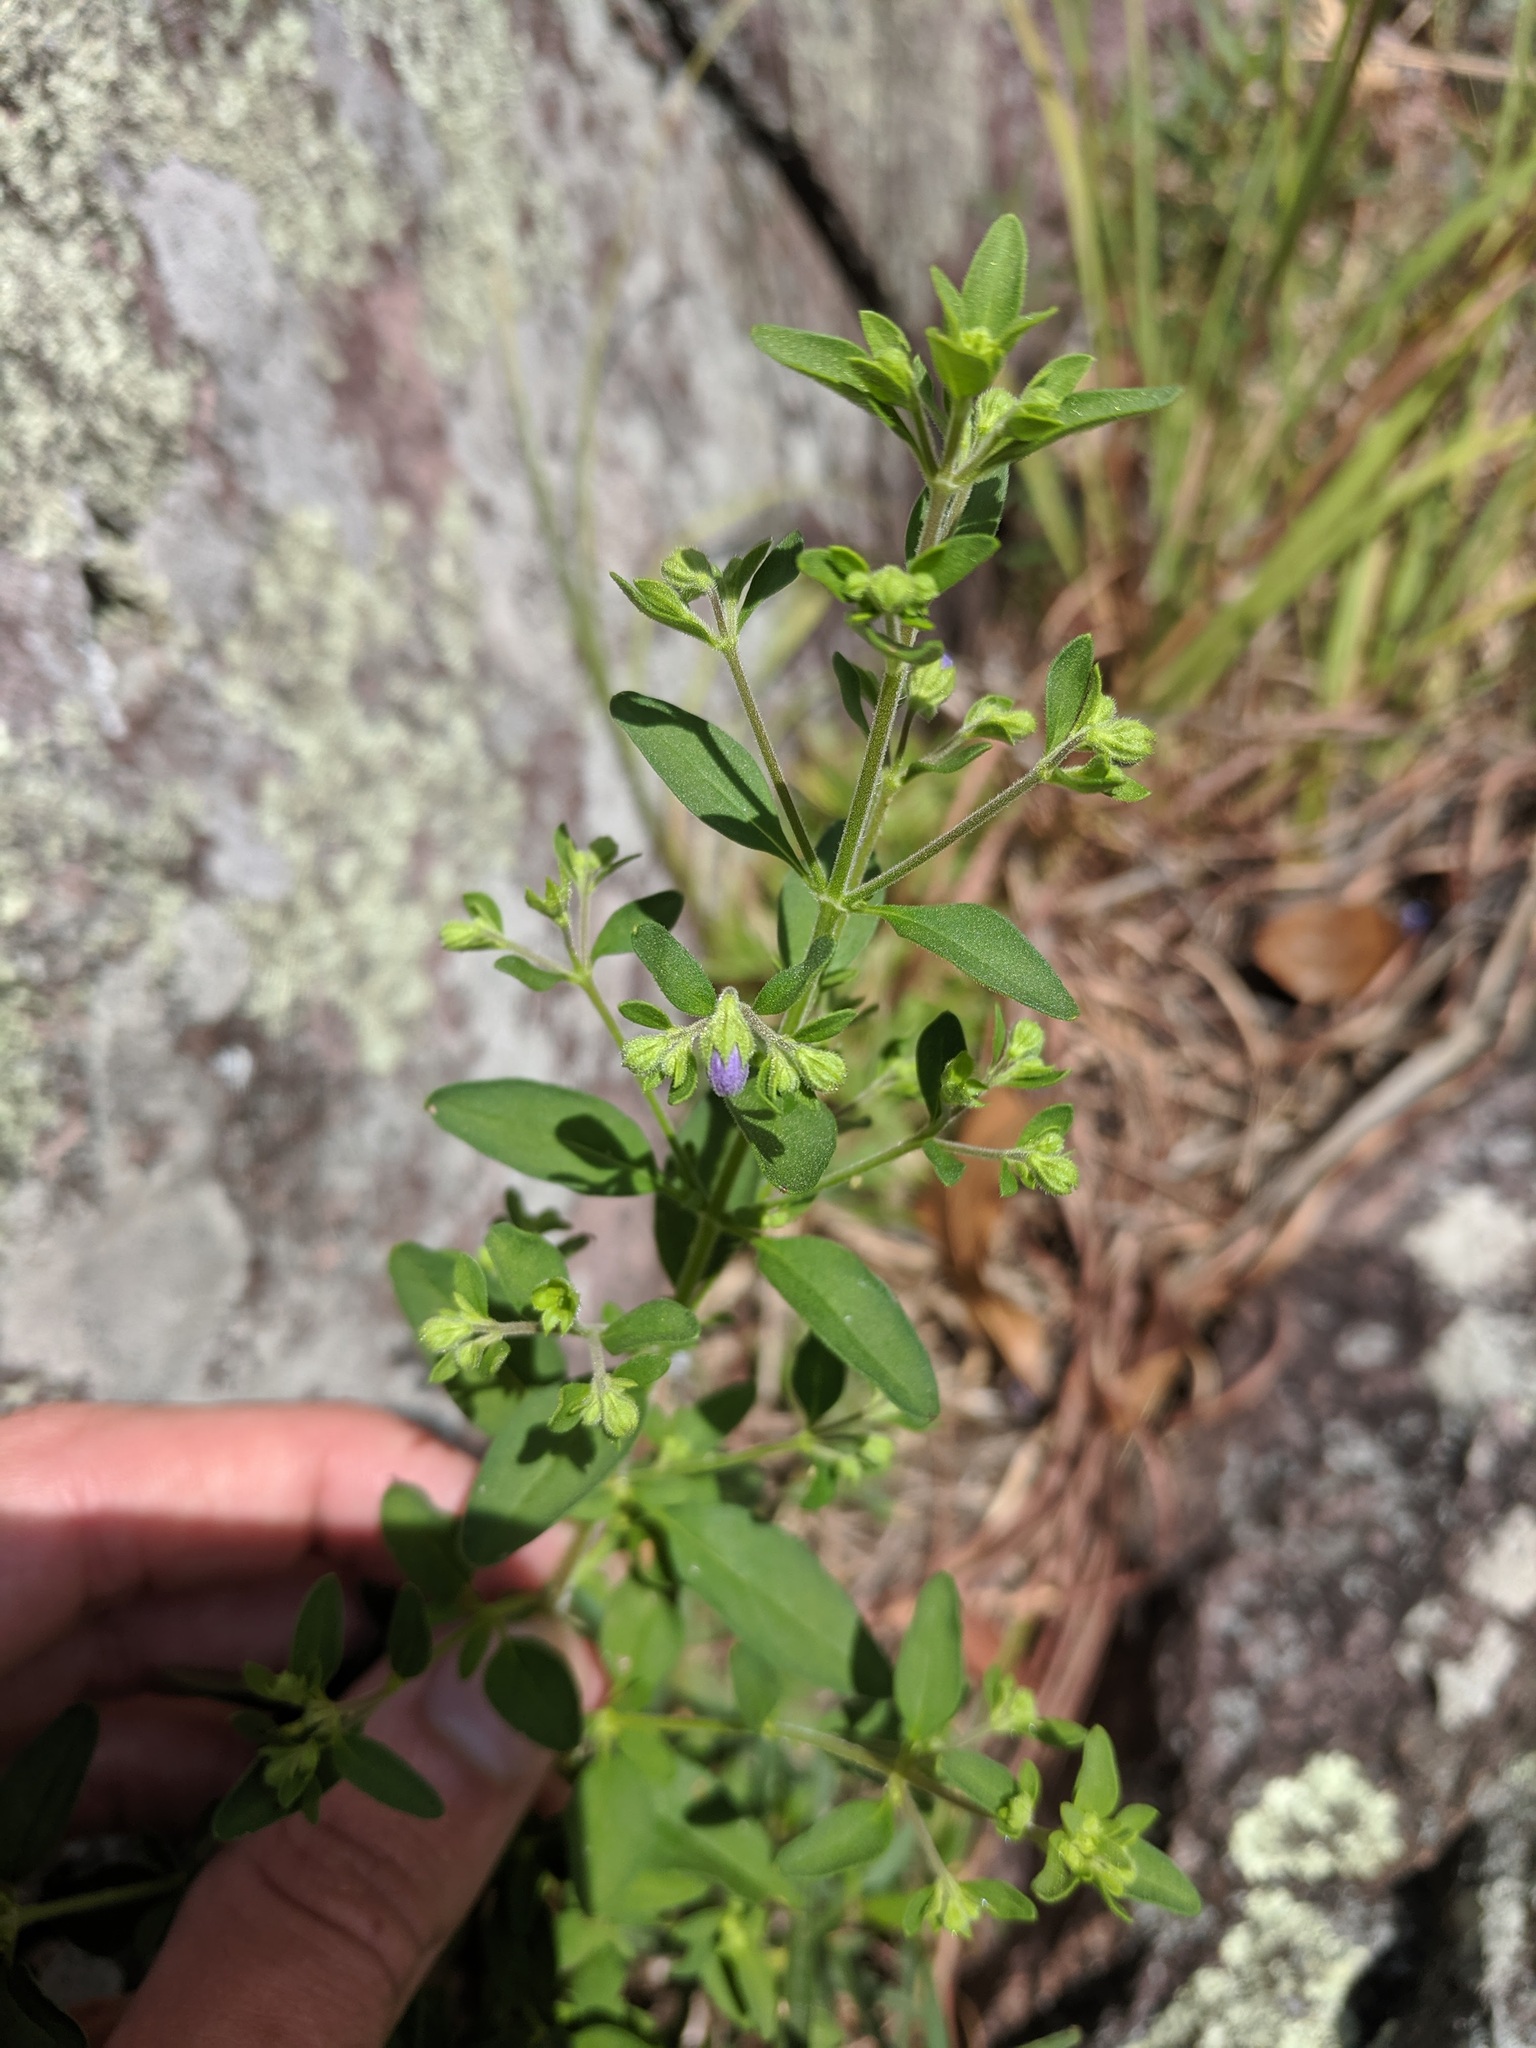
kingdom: Plantae
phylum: Tracheophyta
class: Magnoliopsida
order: Lamiales
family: Lamiaceae
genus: Trichostema
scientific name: Trichostema dichotomum
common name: Bastard pennyroyal
